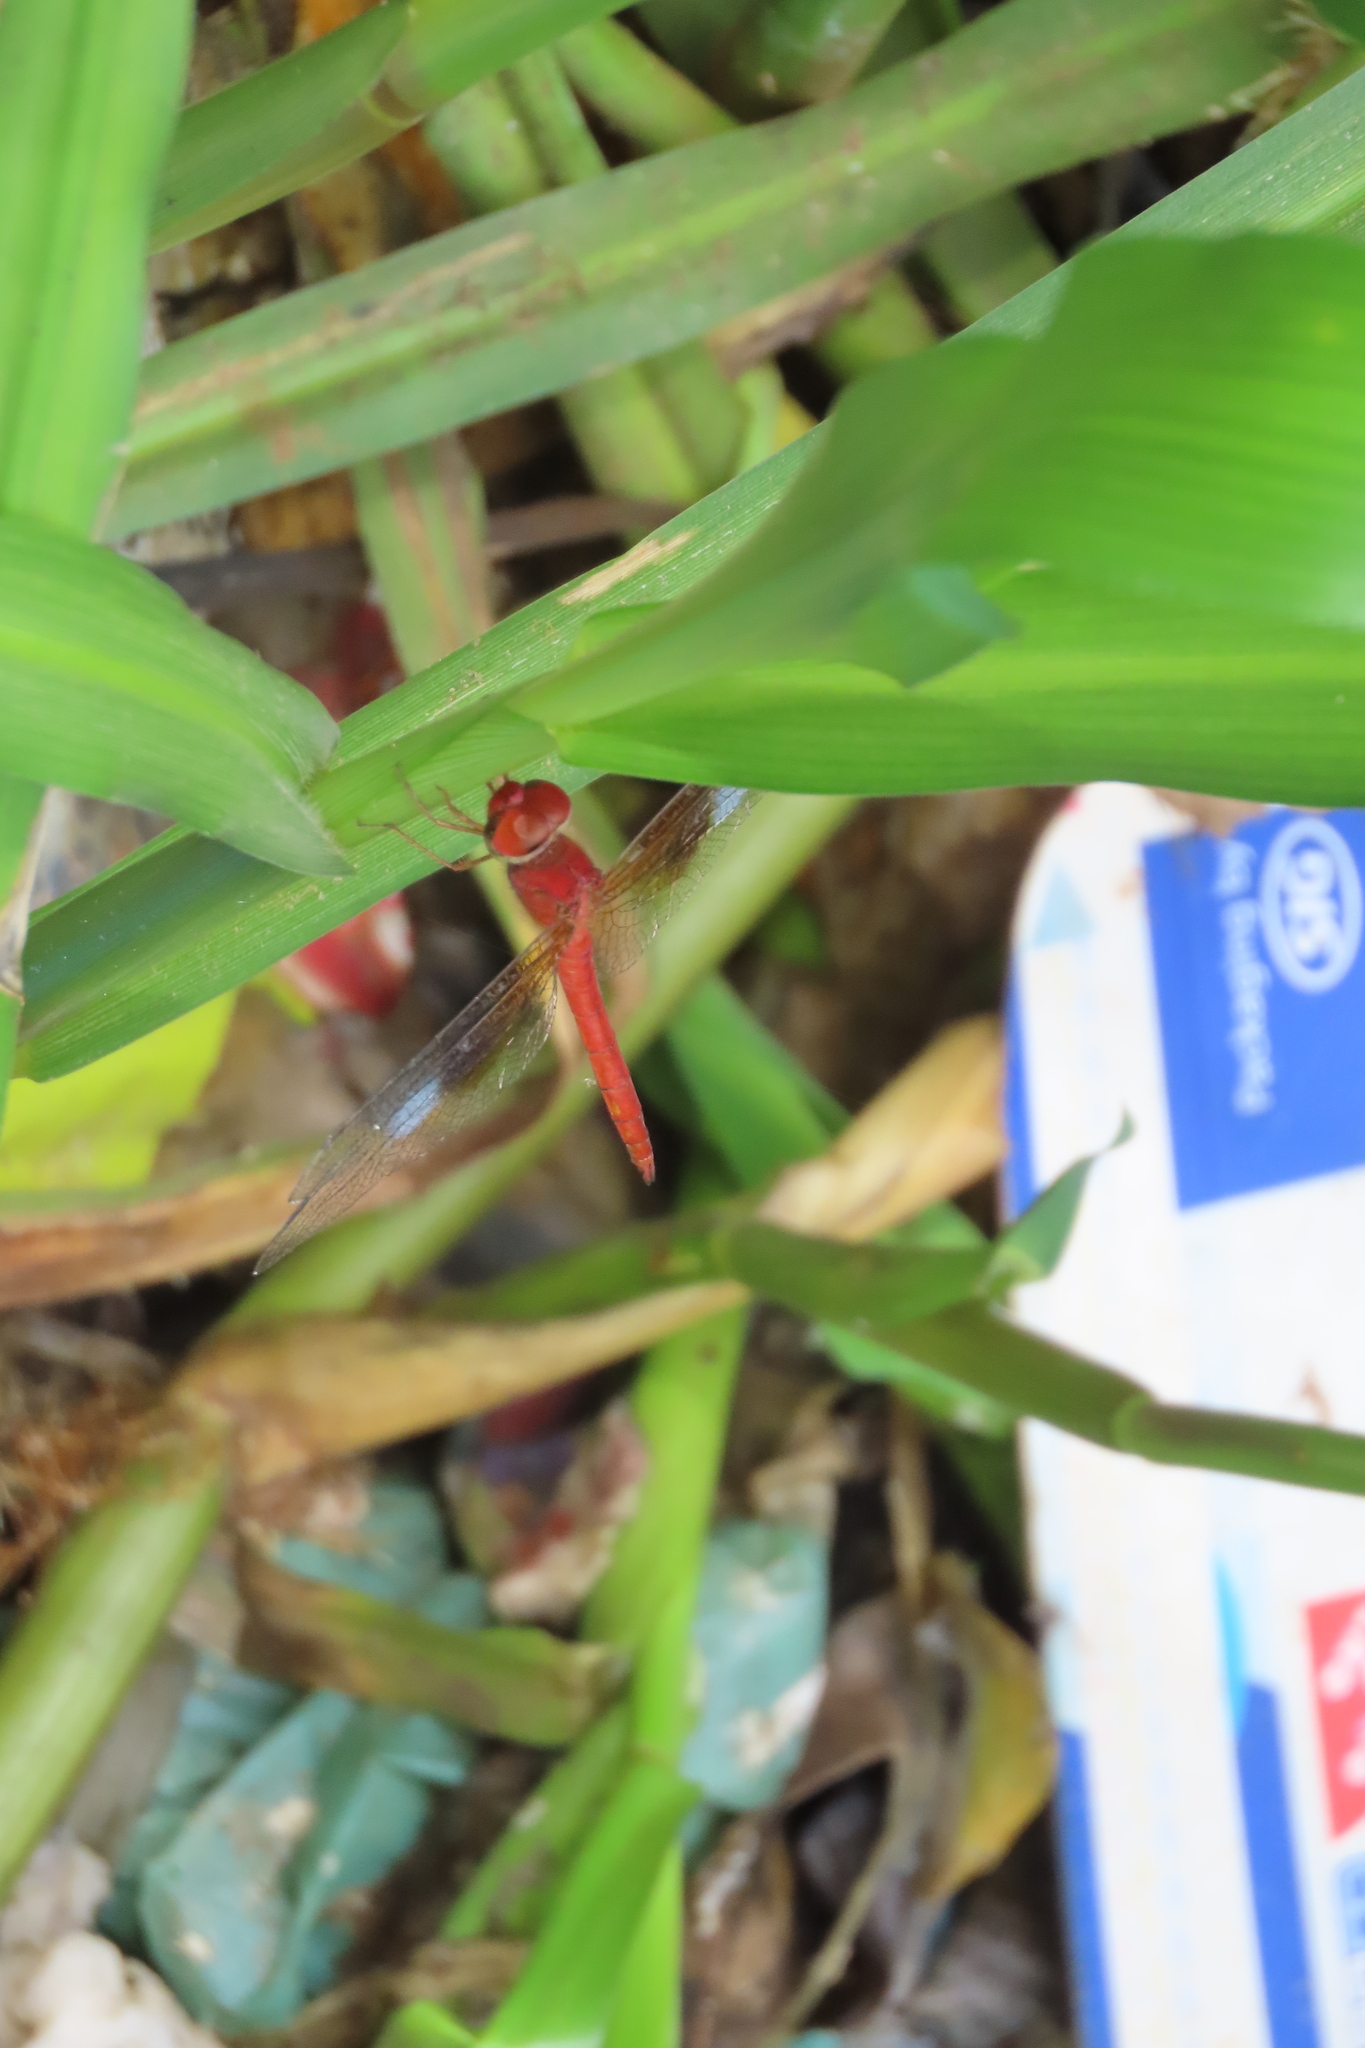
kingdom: Animalia
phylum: Arthropoda
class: Insecta
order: Odonata
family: Libellulidae
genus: Tholymis
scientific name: Tholymis tillarga
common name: Coral-tailed cloud wing
